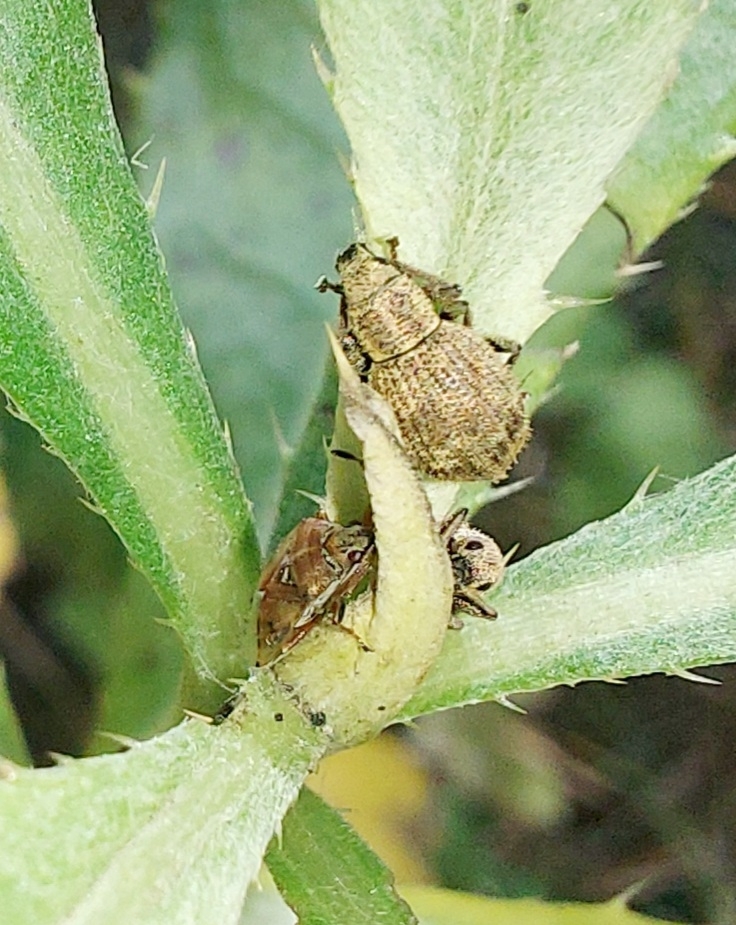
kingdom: Animalia
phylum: Arthropoda
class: Insecta
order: Coleoptera
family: Curculionidae
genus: Sciaphilus
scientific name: Sciaphilus asperatus
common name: Weevil
